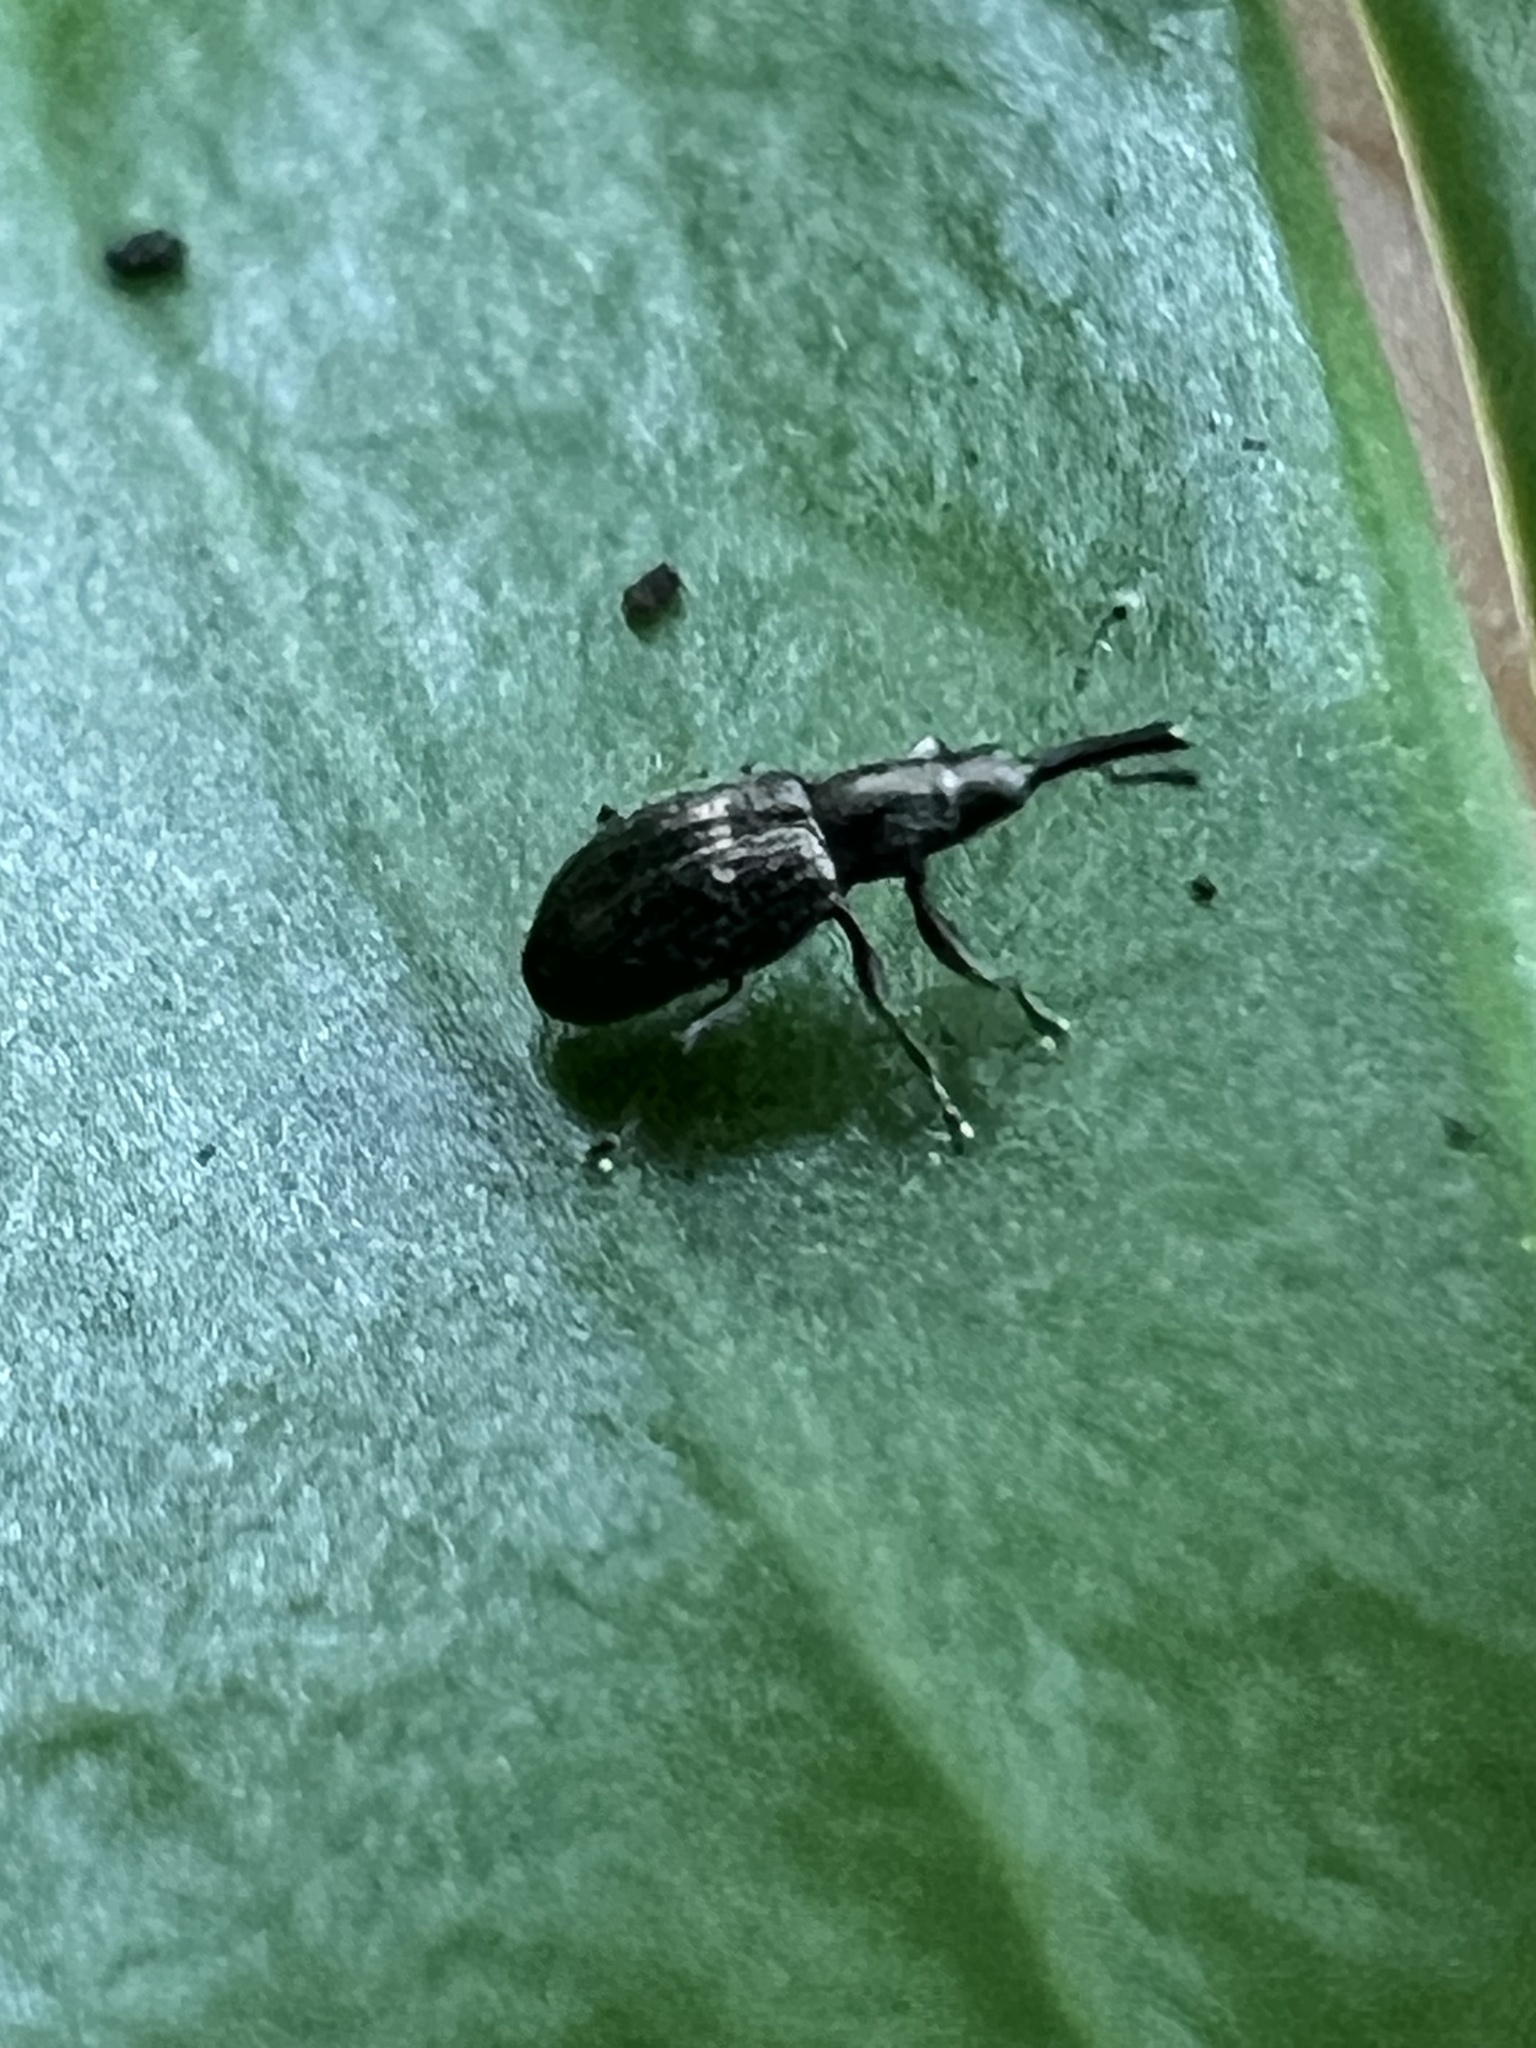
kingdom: Animalia
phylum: Arthropoda
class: Insecta
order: Coleoptera
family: Brentidae
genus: Neocyba
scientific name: Neocyba metrosideros
